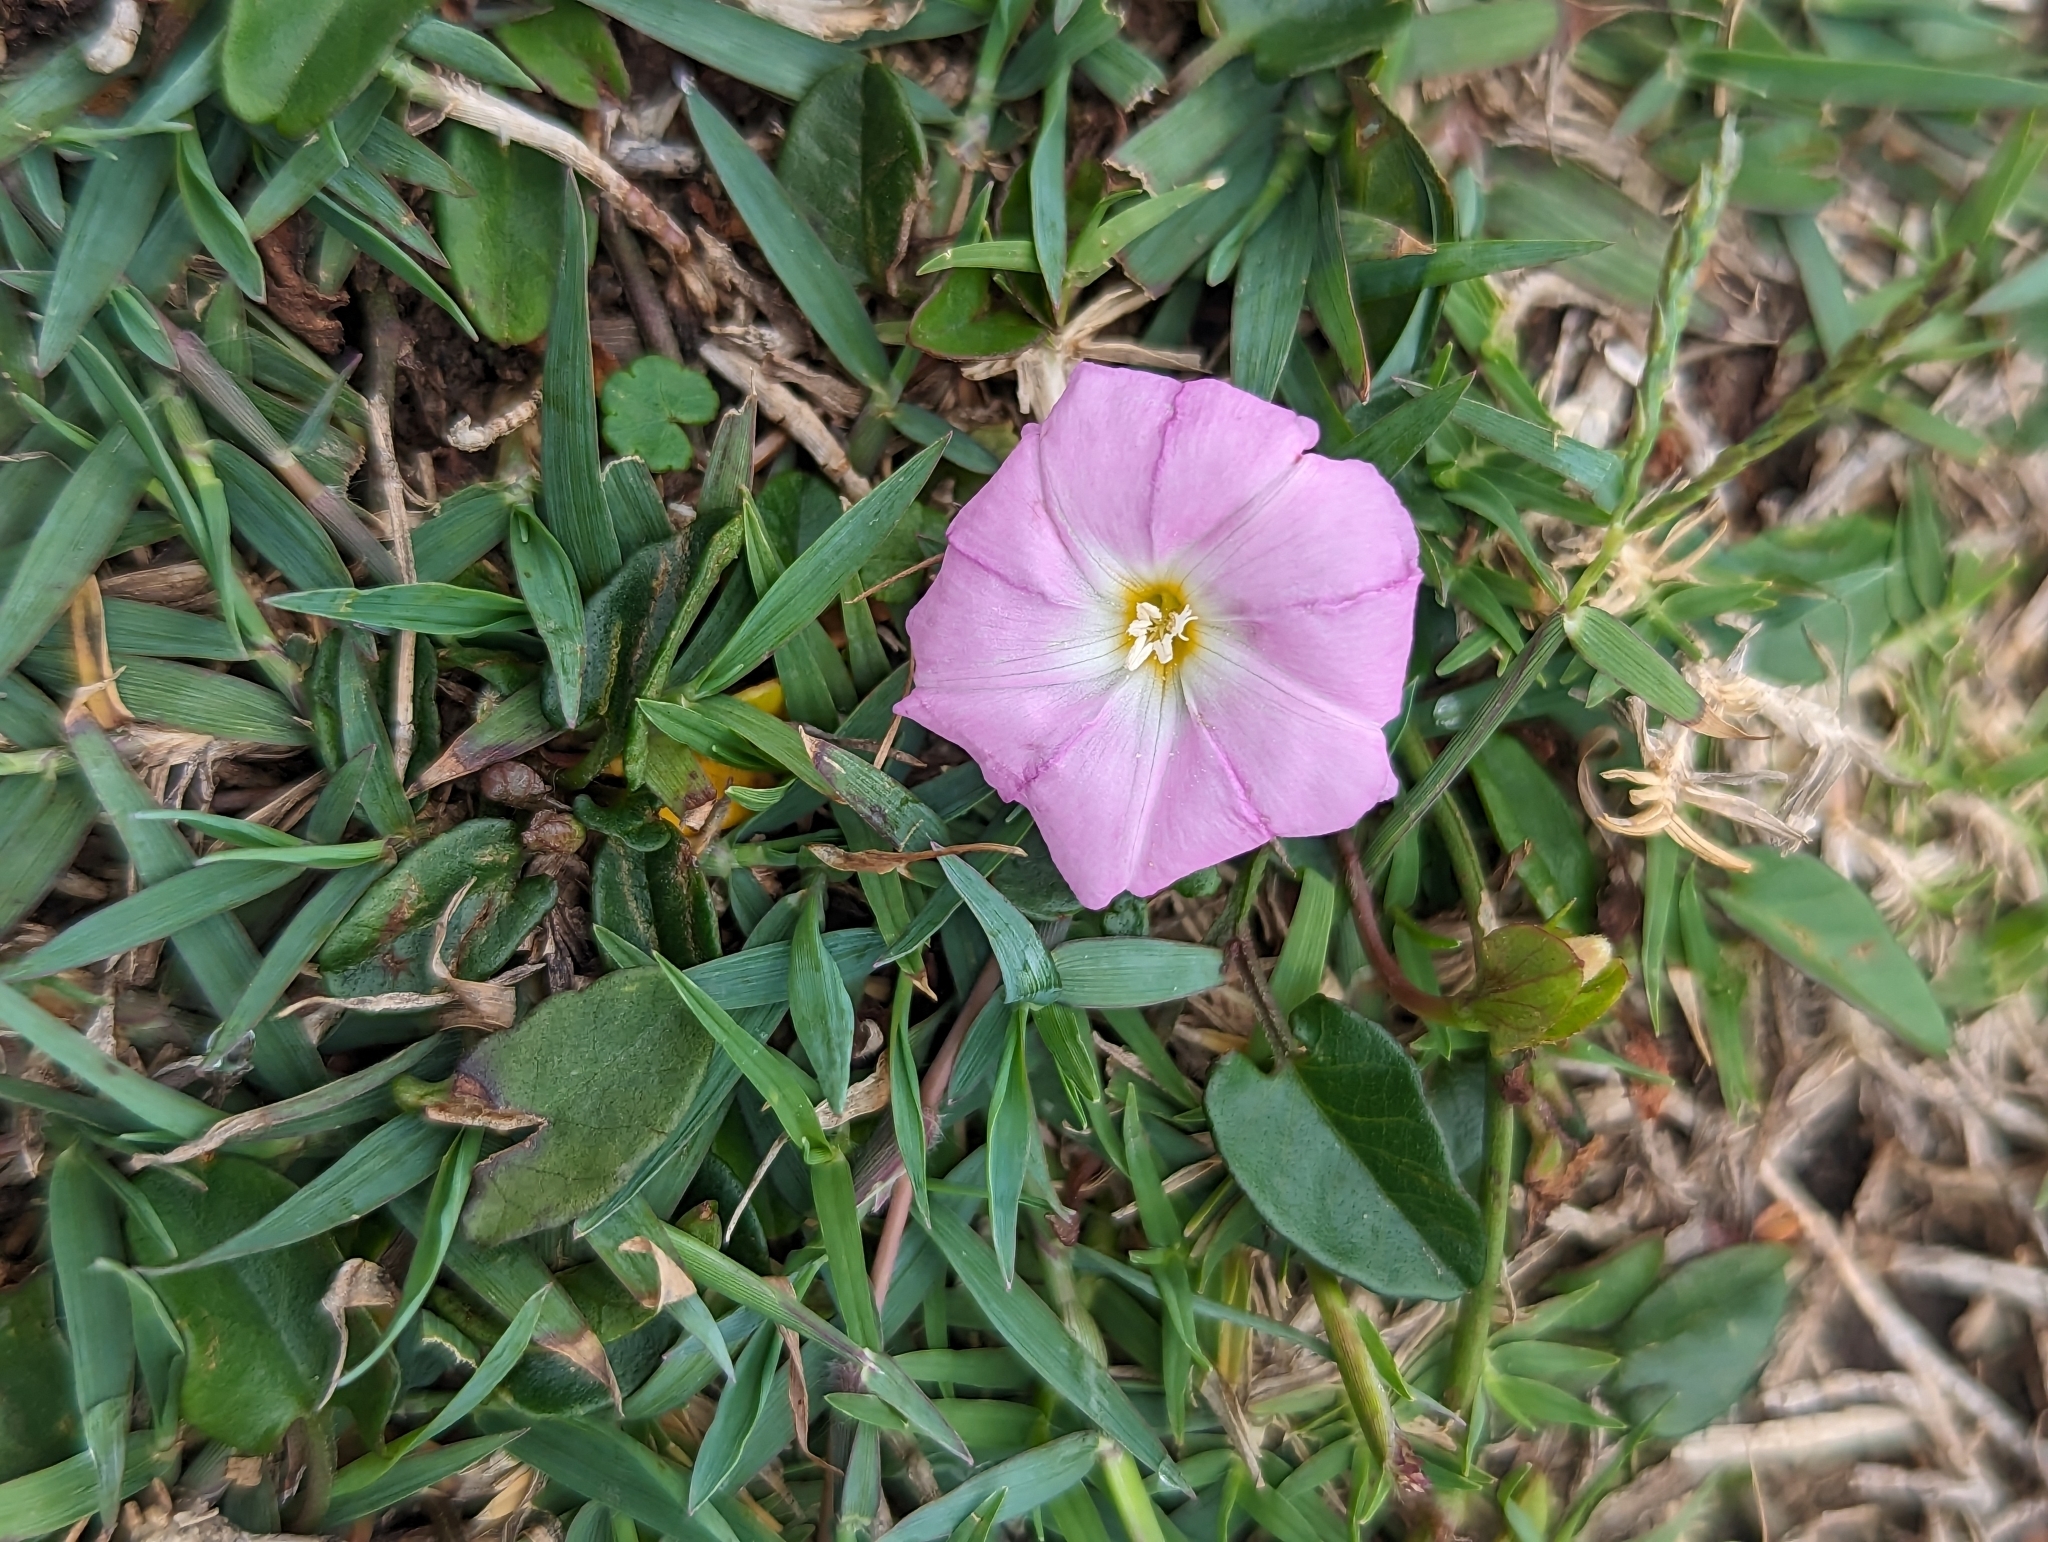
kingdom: Plantae
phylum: Tracheophyta
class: Magnoliopsida
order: Solanales
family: Convolvulaceae
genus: Polymeria
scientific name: Polymeria calycina
